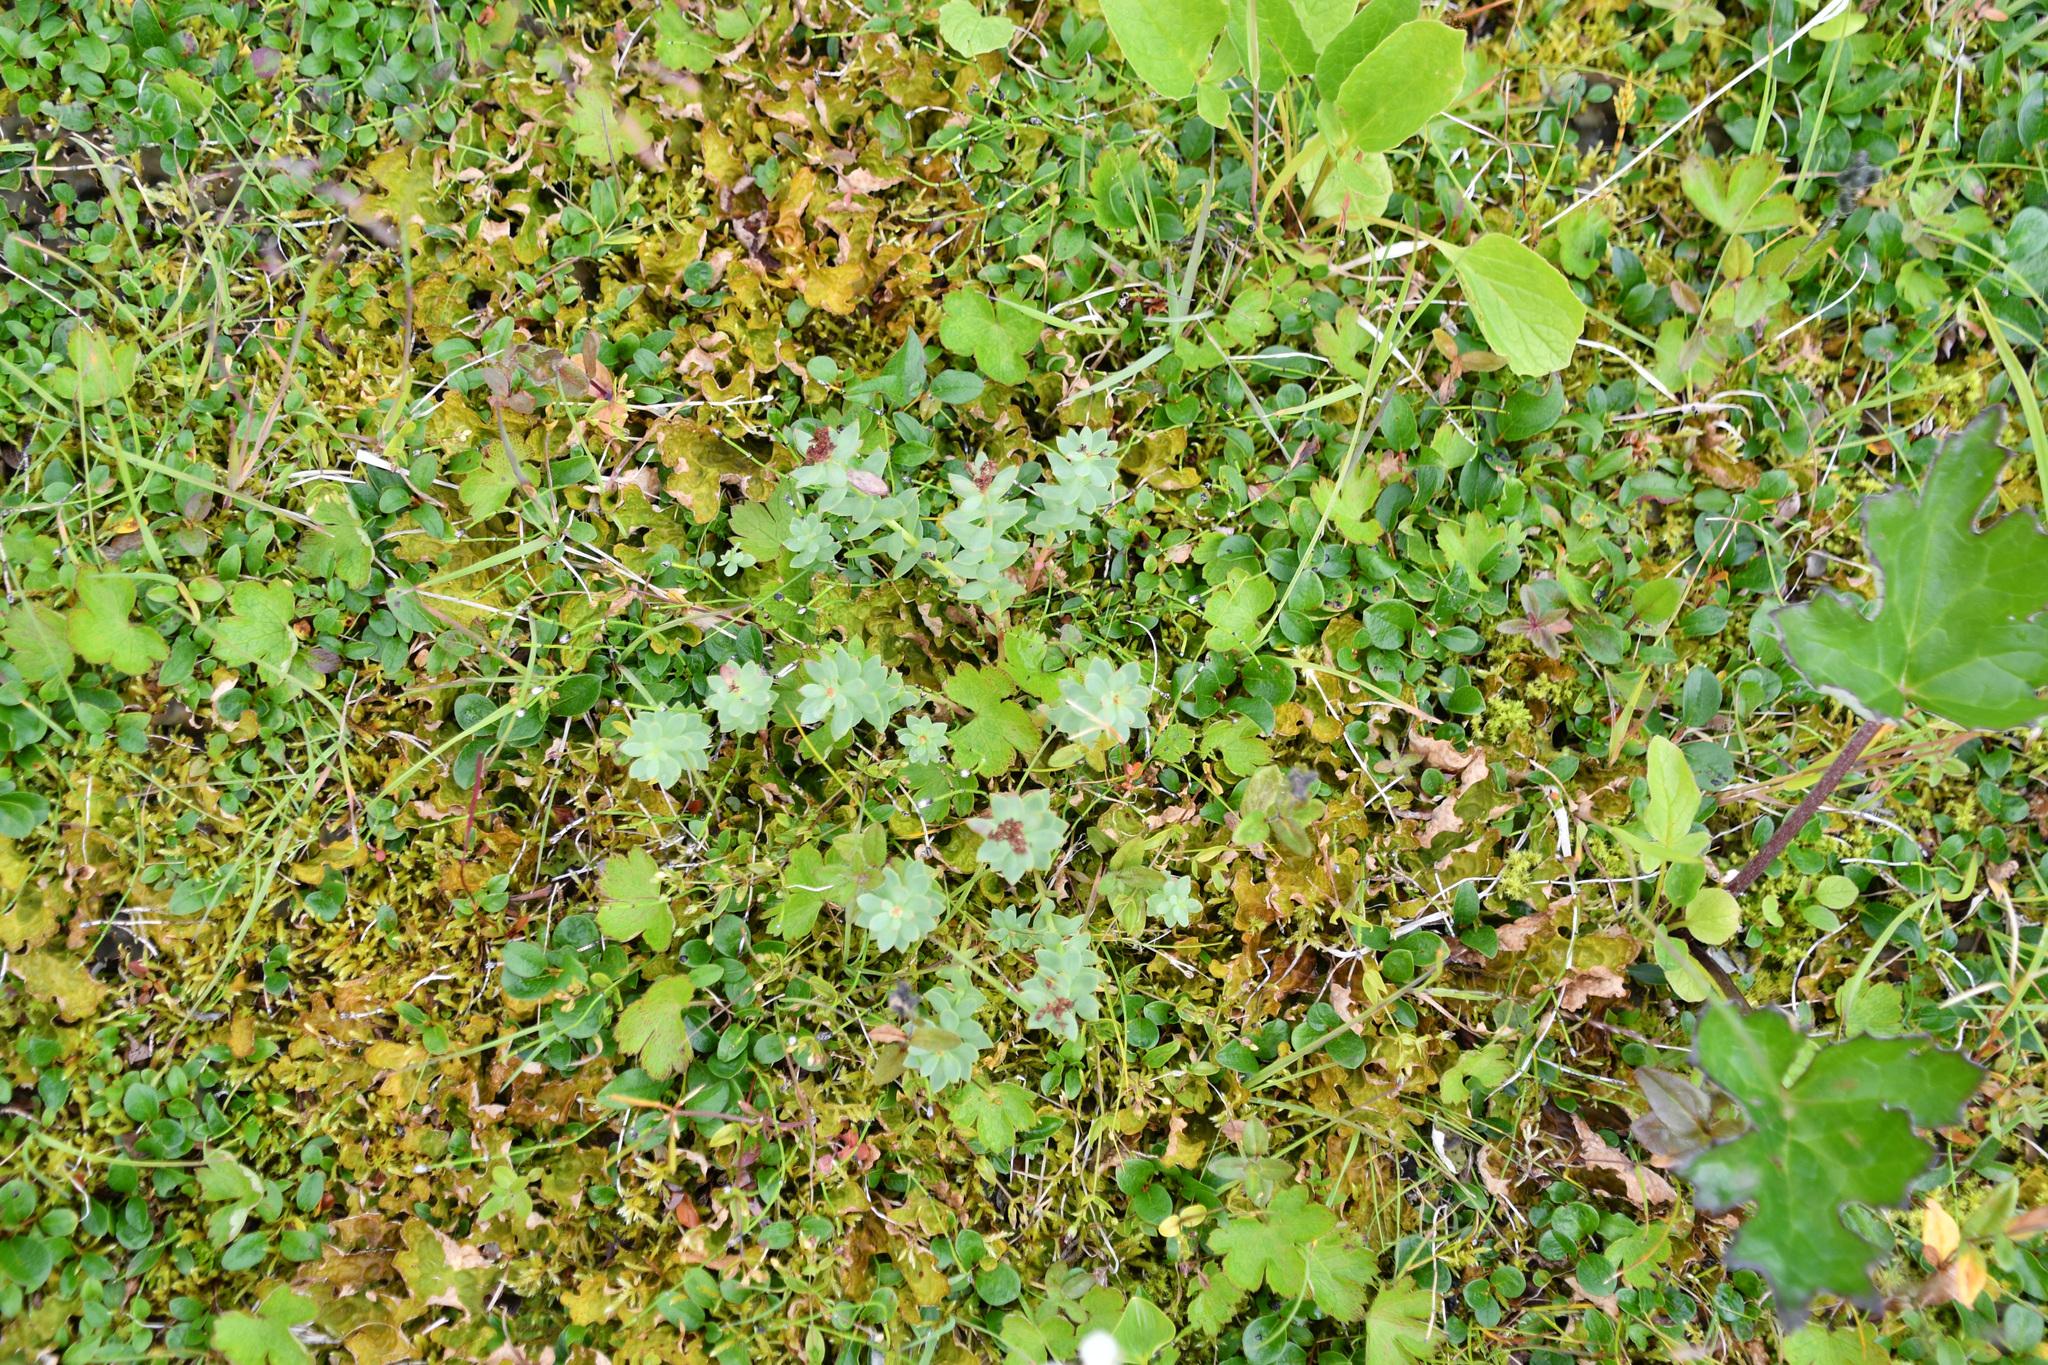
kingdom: Plantae
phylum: Tracheophyta
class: Magnoliopsida
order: Saxifragales
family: Crassulaceae
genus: Rhodiola
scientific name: Rhodiola integrifolia
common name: Western roseroot
